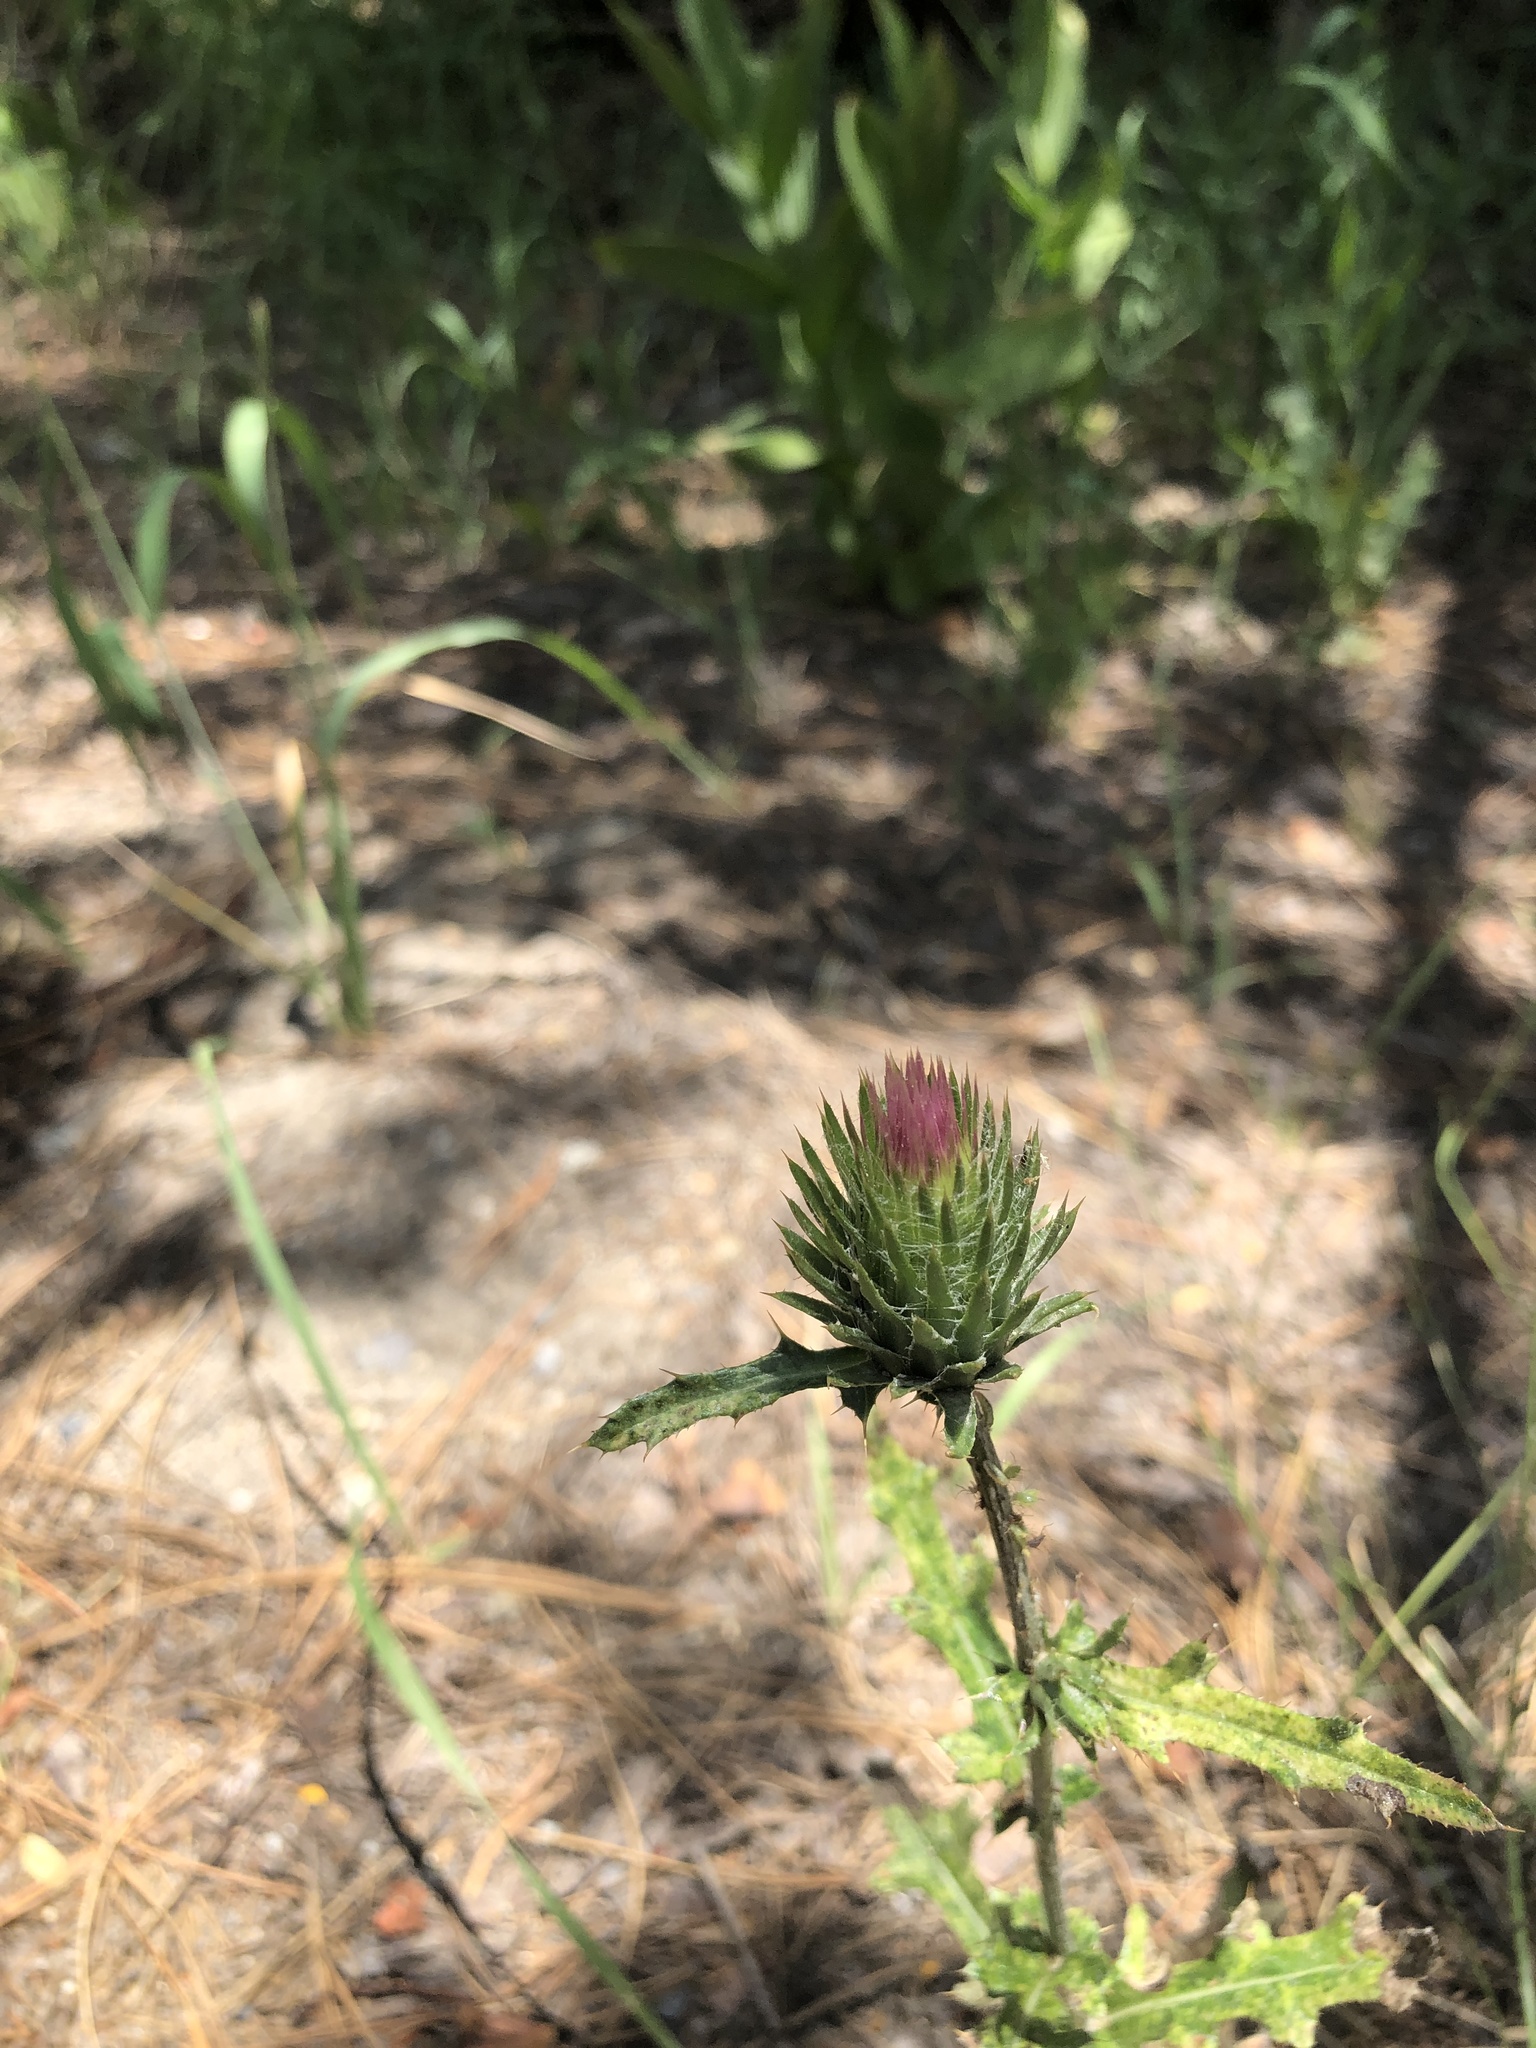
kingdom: Plantae
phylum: Tracheophyta
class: Magnoliopsida
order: Asterales
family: Asteraceae
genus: Cirsium
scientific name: Cirsium andersonii
